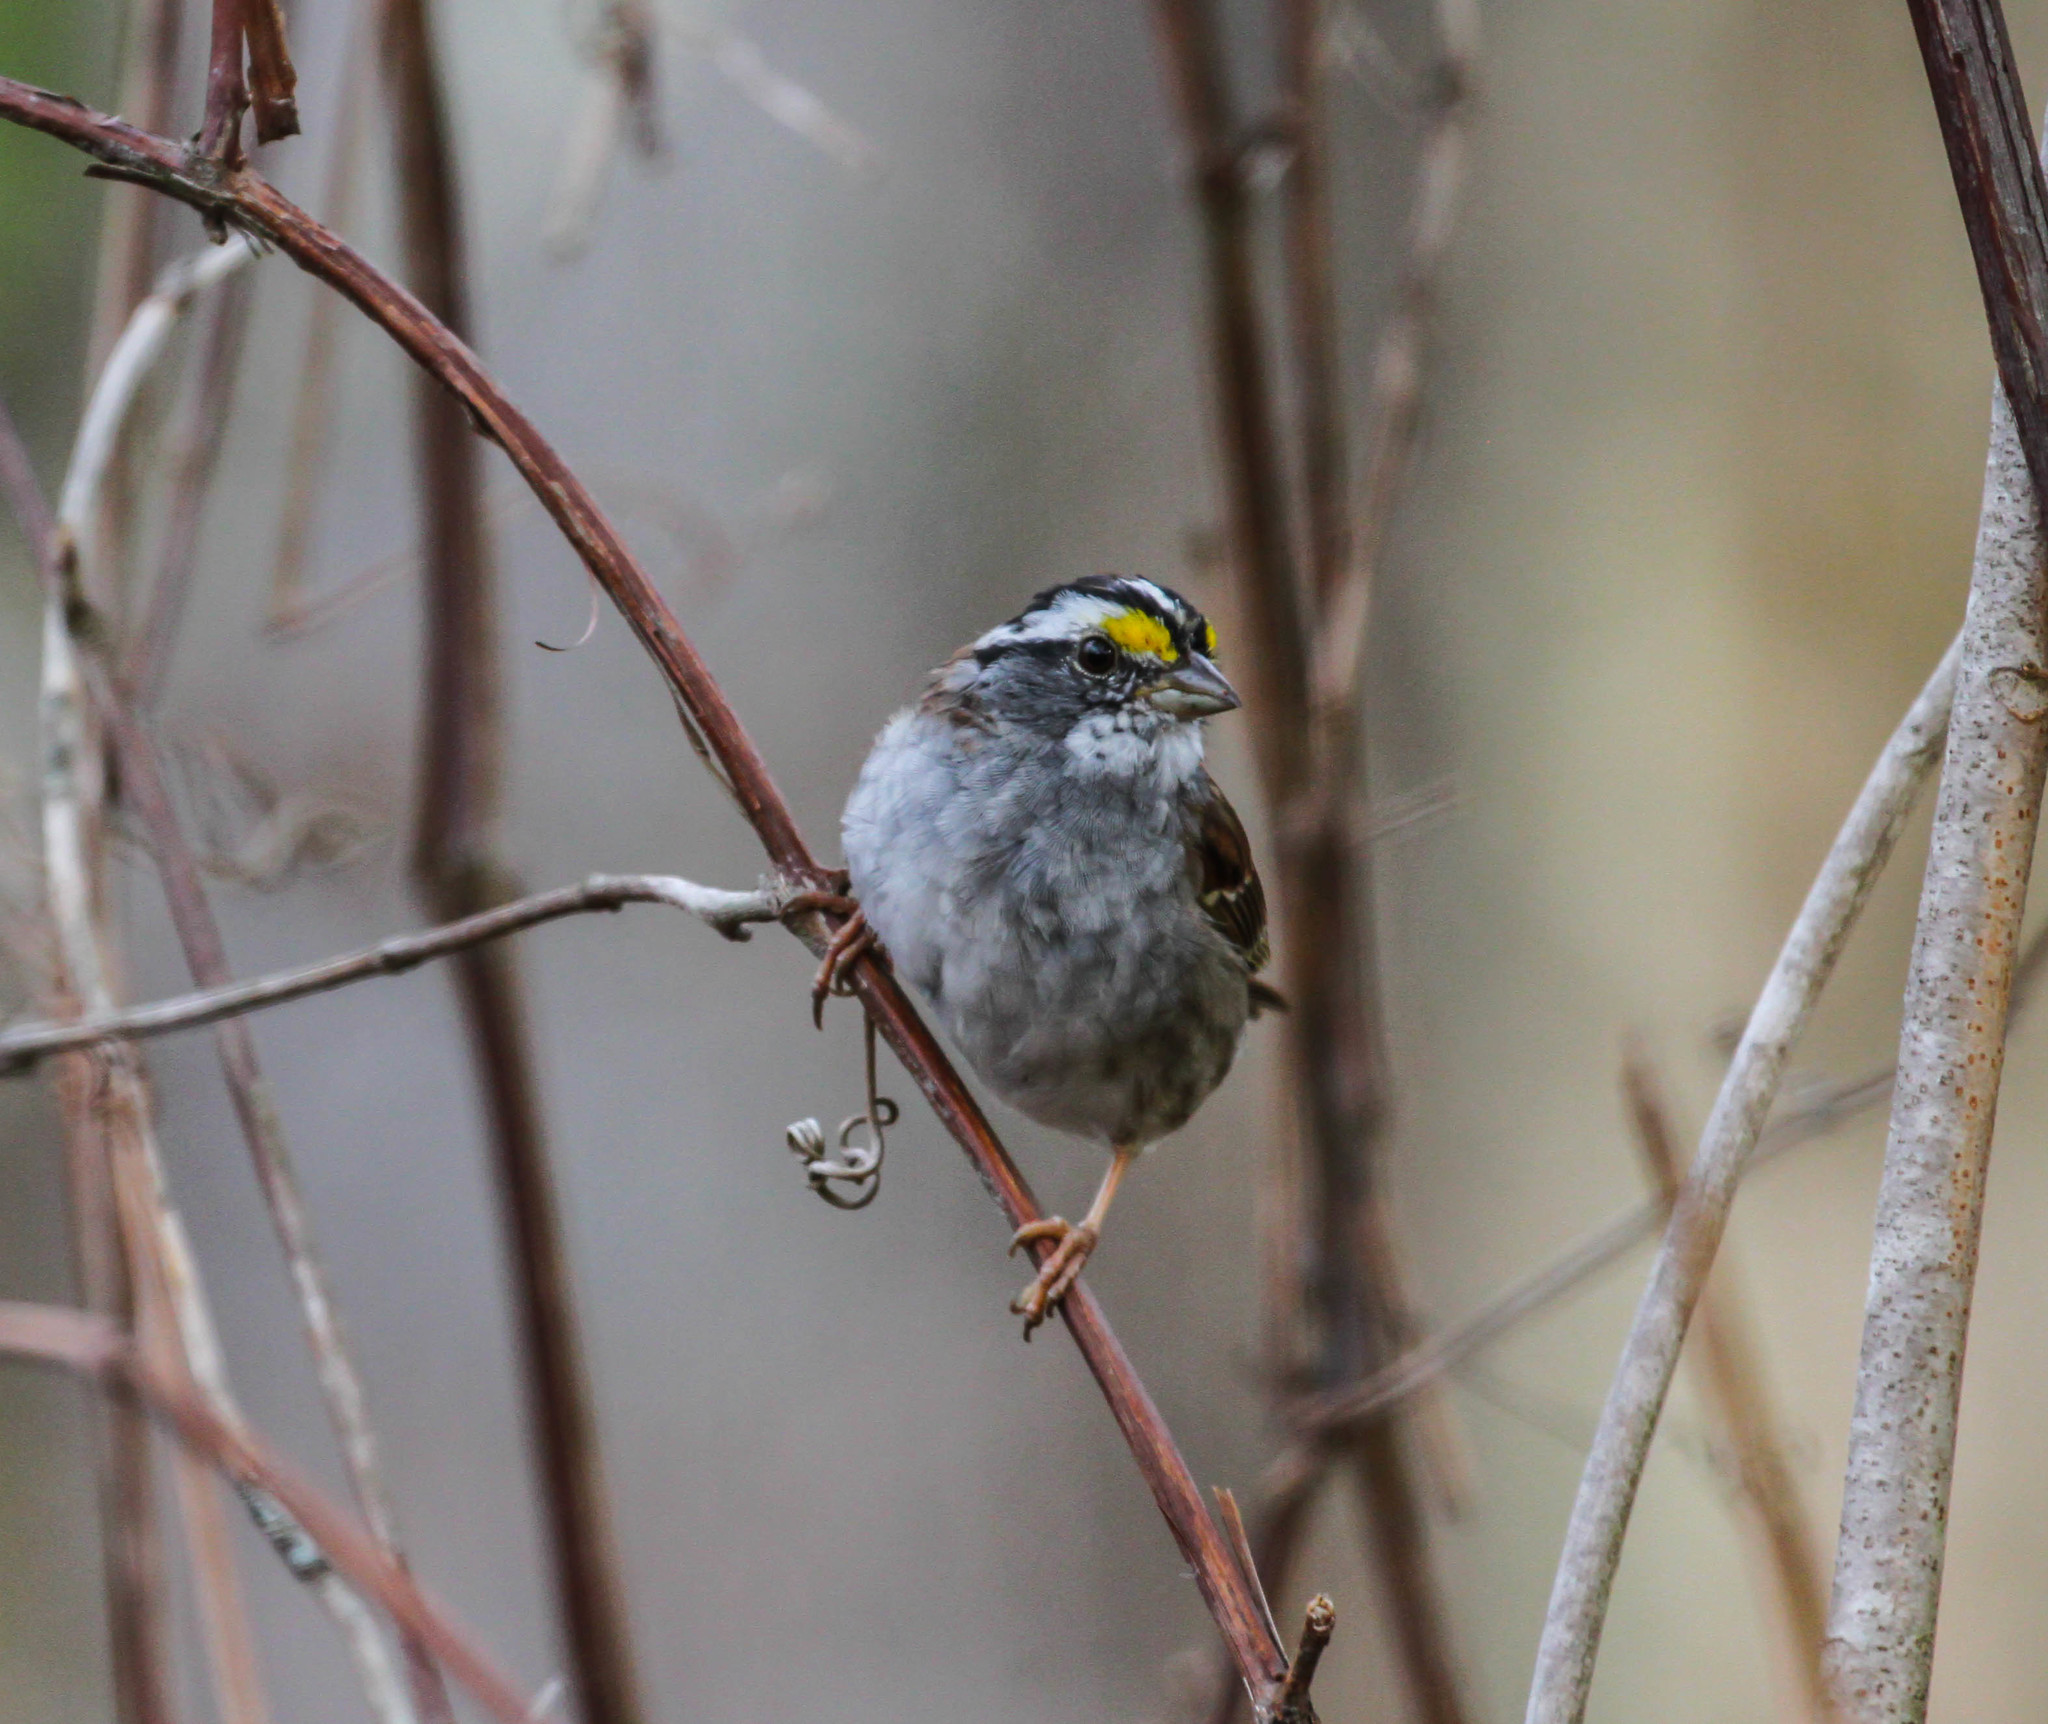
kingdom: Animalia
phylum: Chordata
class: Aves
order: Passeriformes
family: Passerellidae
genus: Zonotrichia
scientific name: Zonotrichia albicollis
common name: White-throated sparrow
